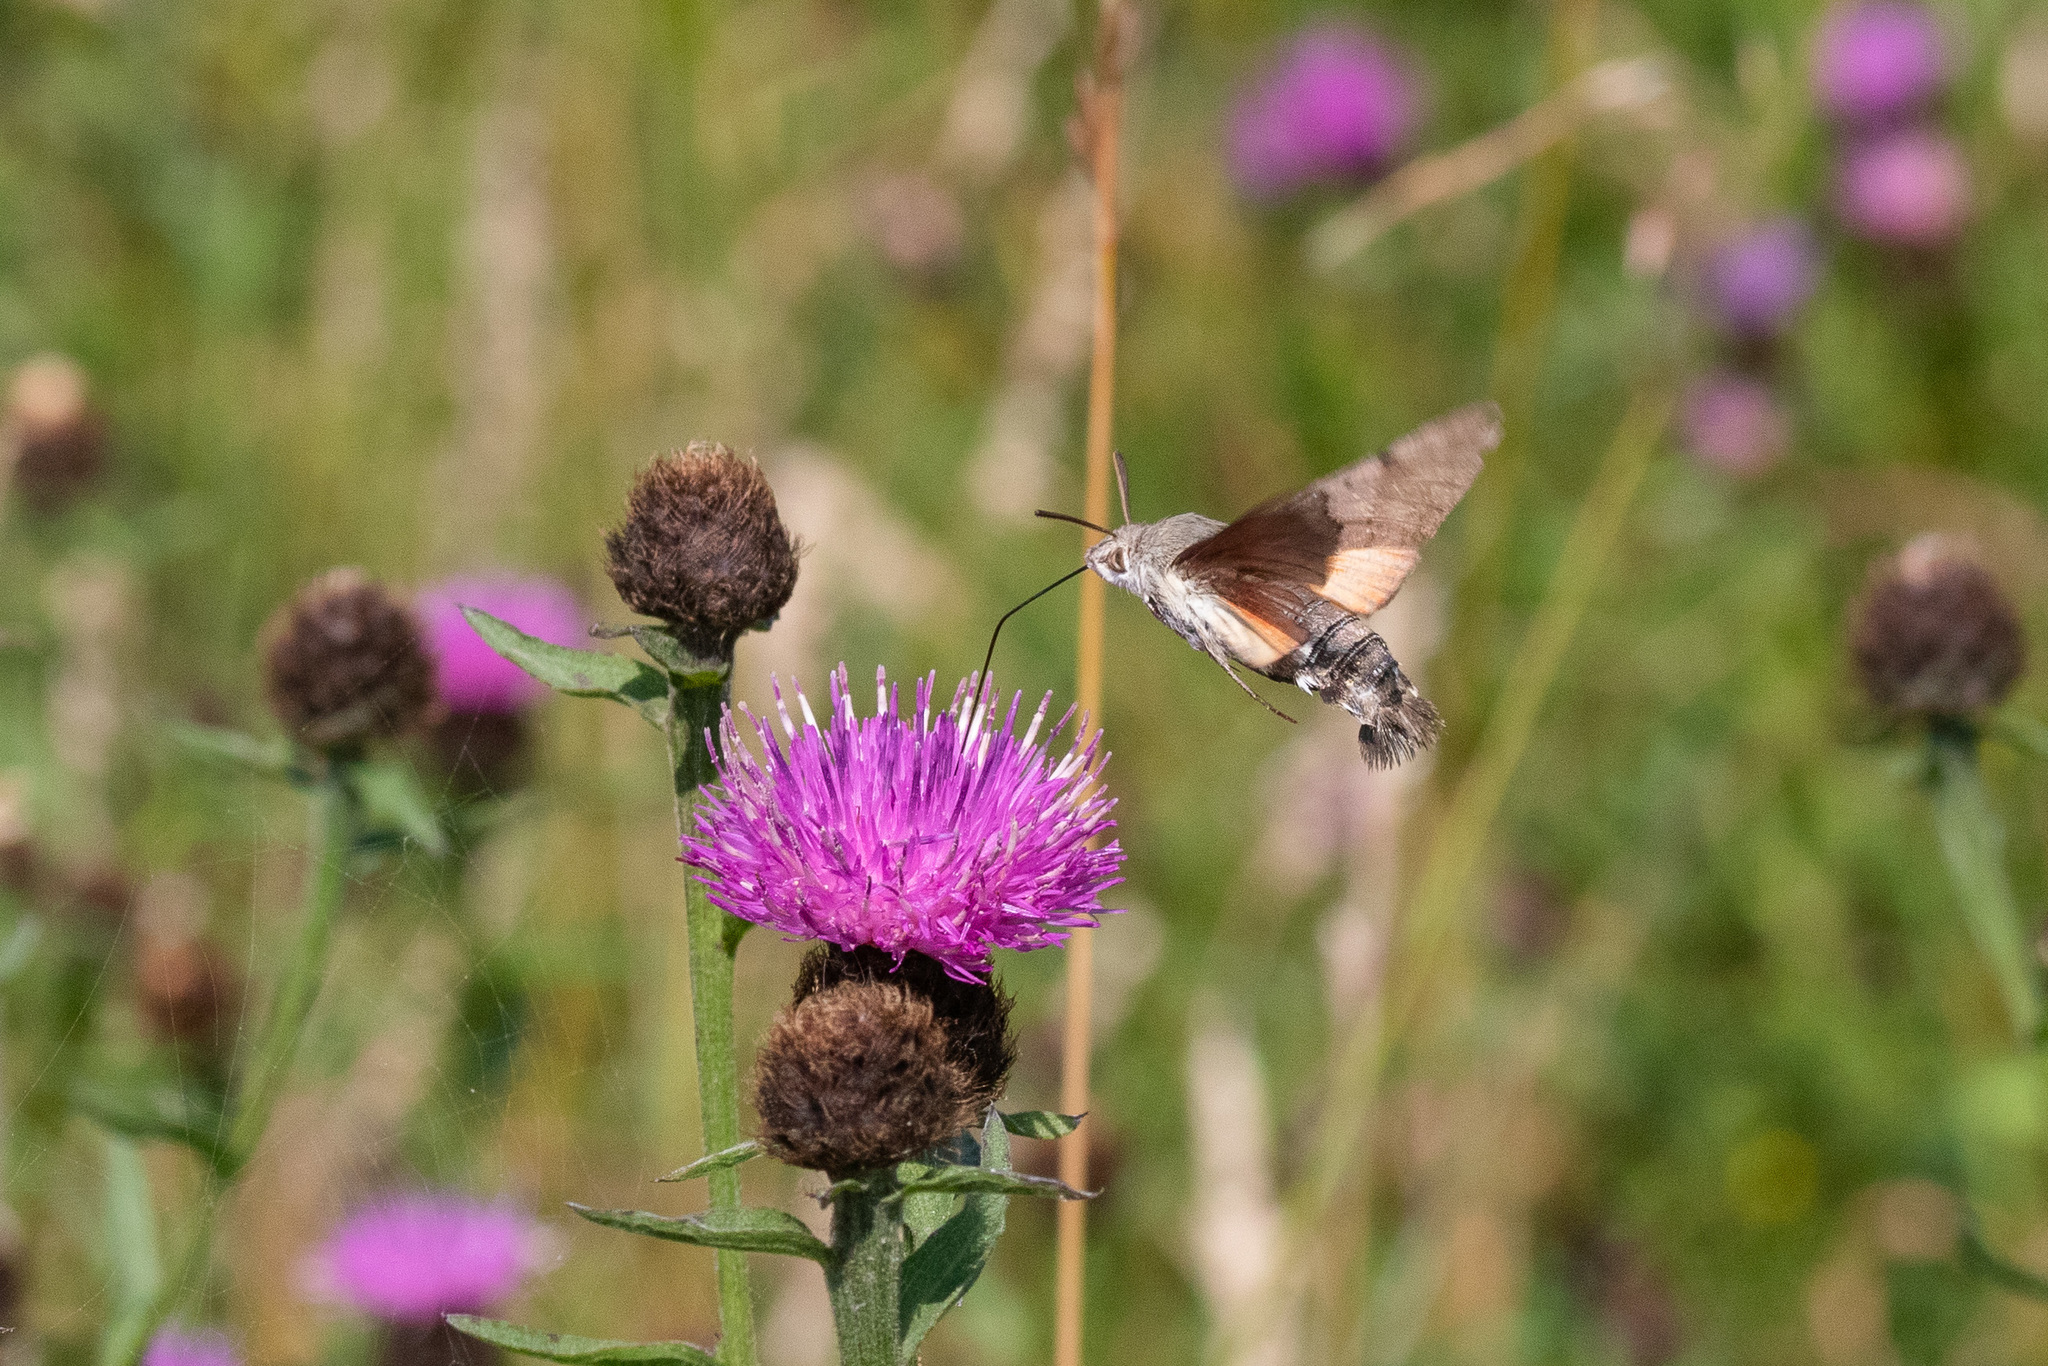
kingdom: Animalia
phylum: Arthropoda
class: Insecta
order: Lepidoptera
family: Sphingidae
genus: Macroglossum
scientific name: Macroglossum stellatarum
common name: Humming-bird hawk-moth
